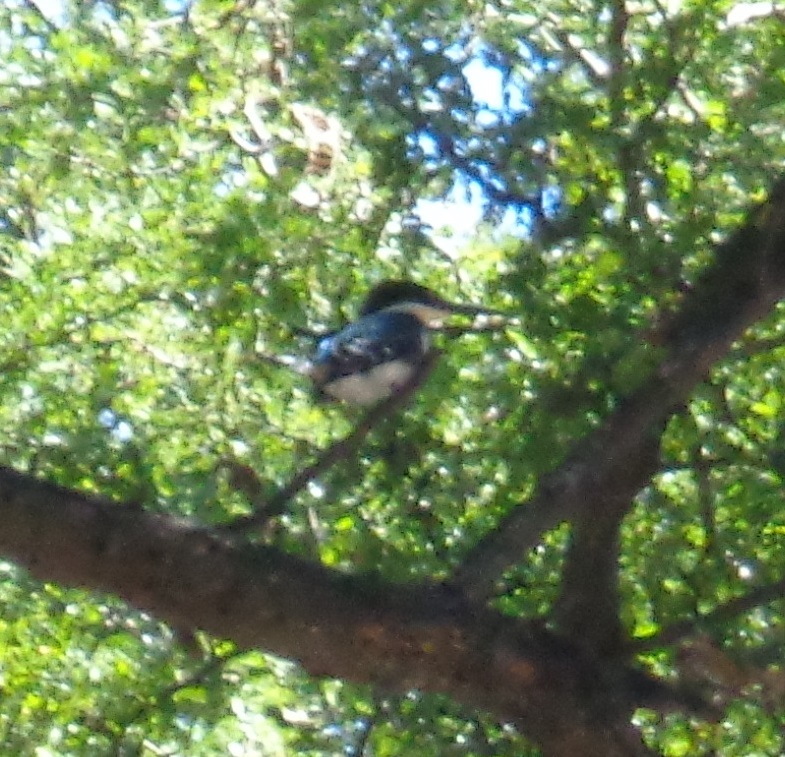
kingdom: Animalia
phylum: Chordata
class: Aves
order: Coraciiformes
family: Alcedinidae
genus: Chloroceryle
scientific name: Chloroceryle americana
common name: Green kingfisher
